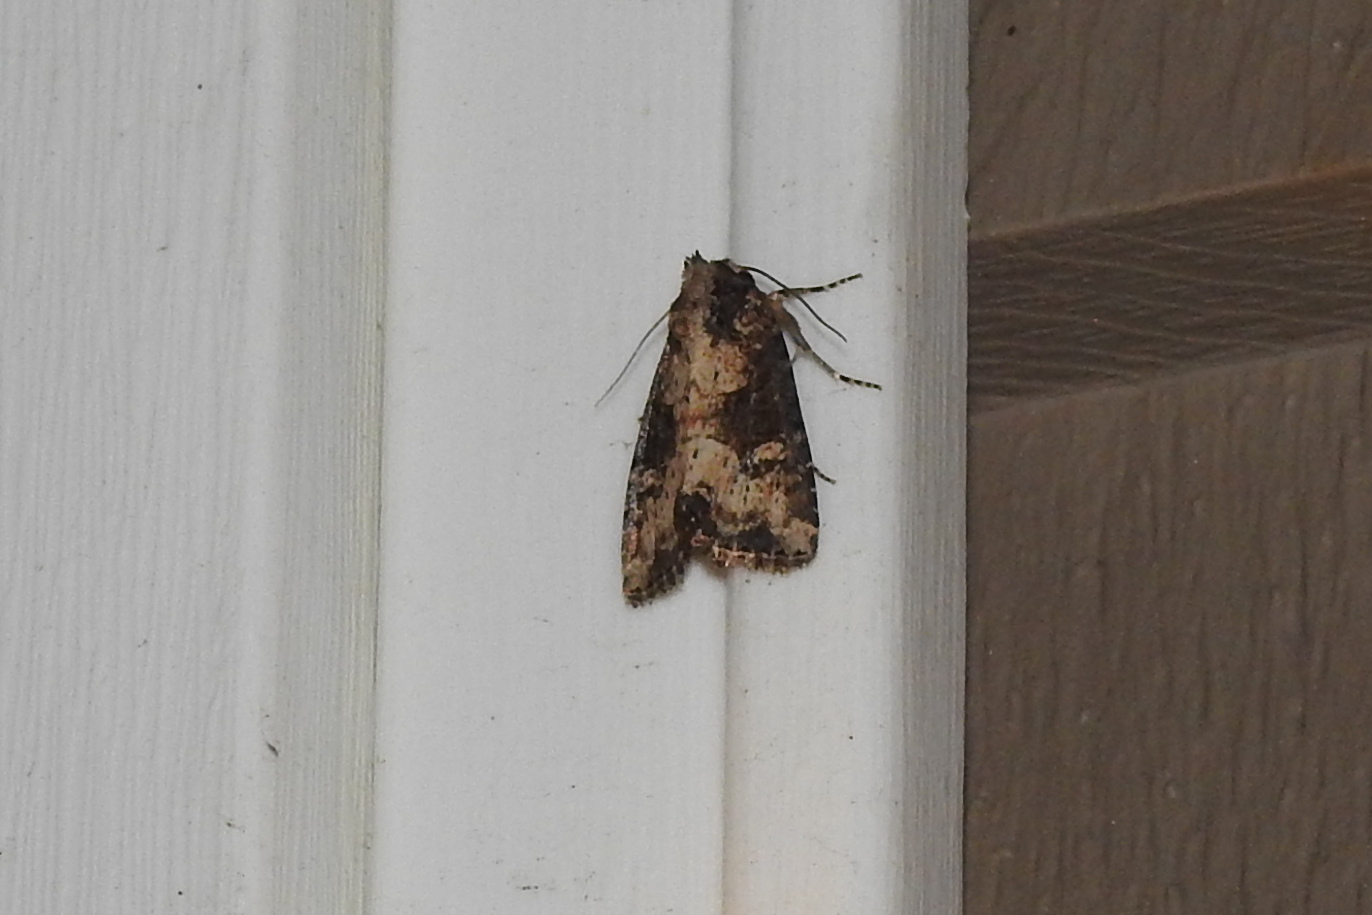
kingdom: Animalia
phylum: Arthropoda
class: Insecta
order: Lepidoptera
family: Noctuidae
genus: Lateroligia
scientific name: Lateroligia ophiogramma
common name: Double lobed
